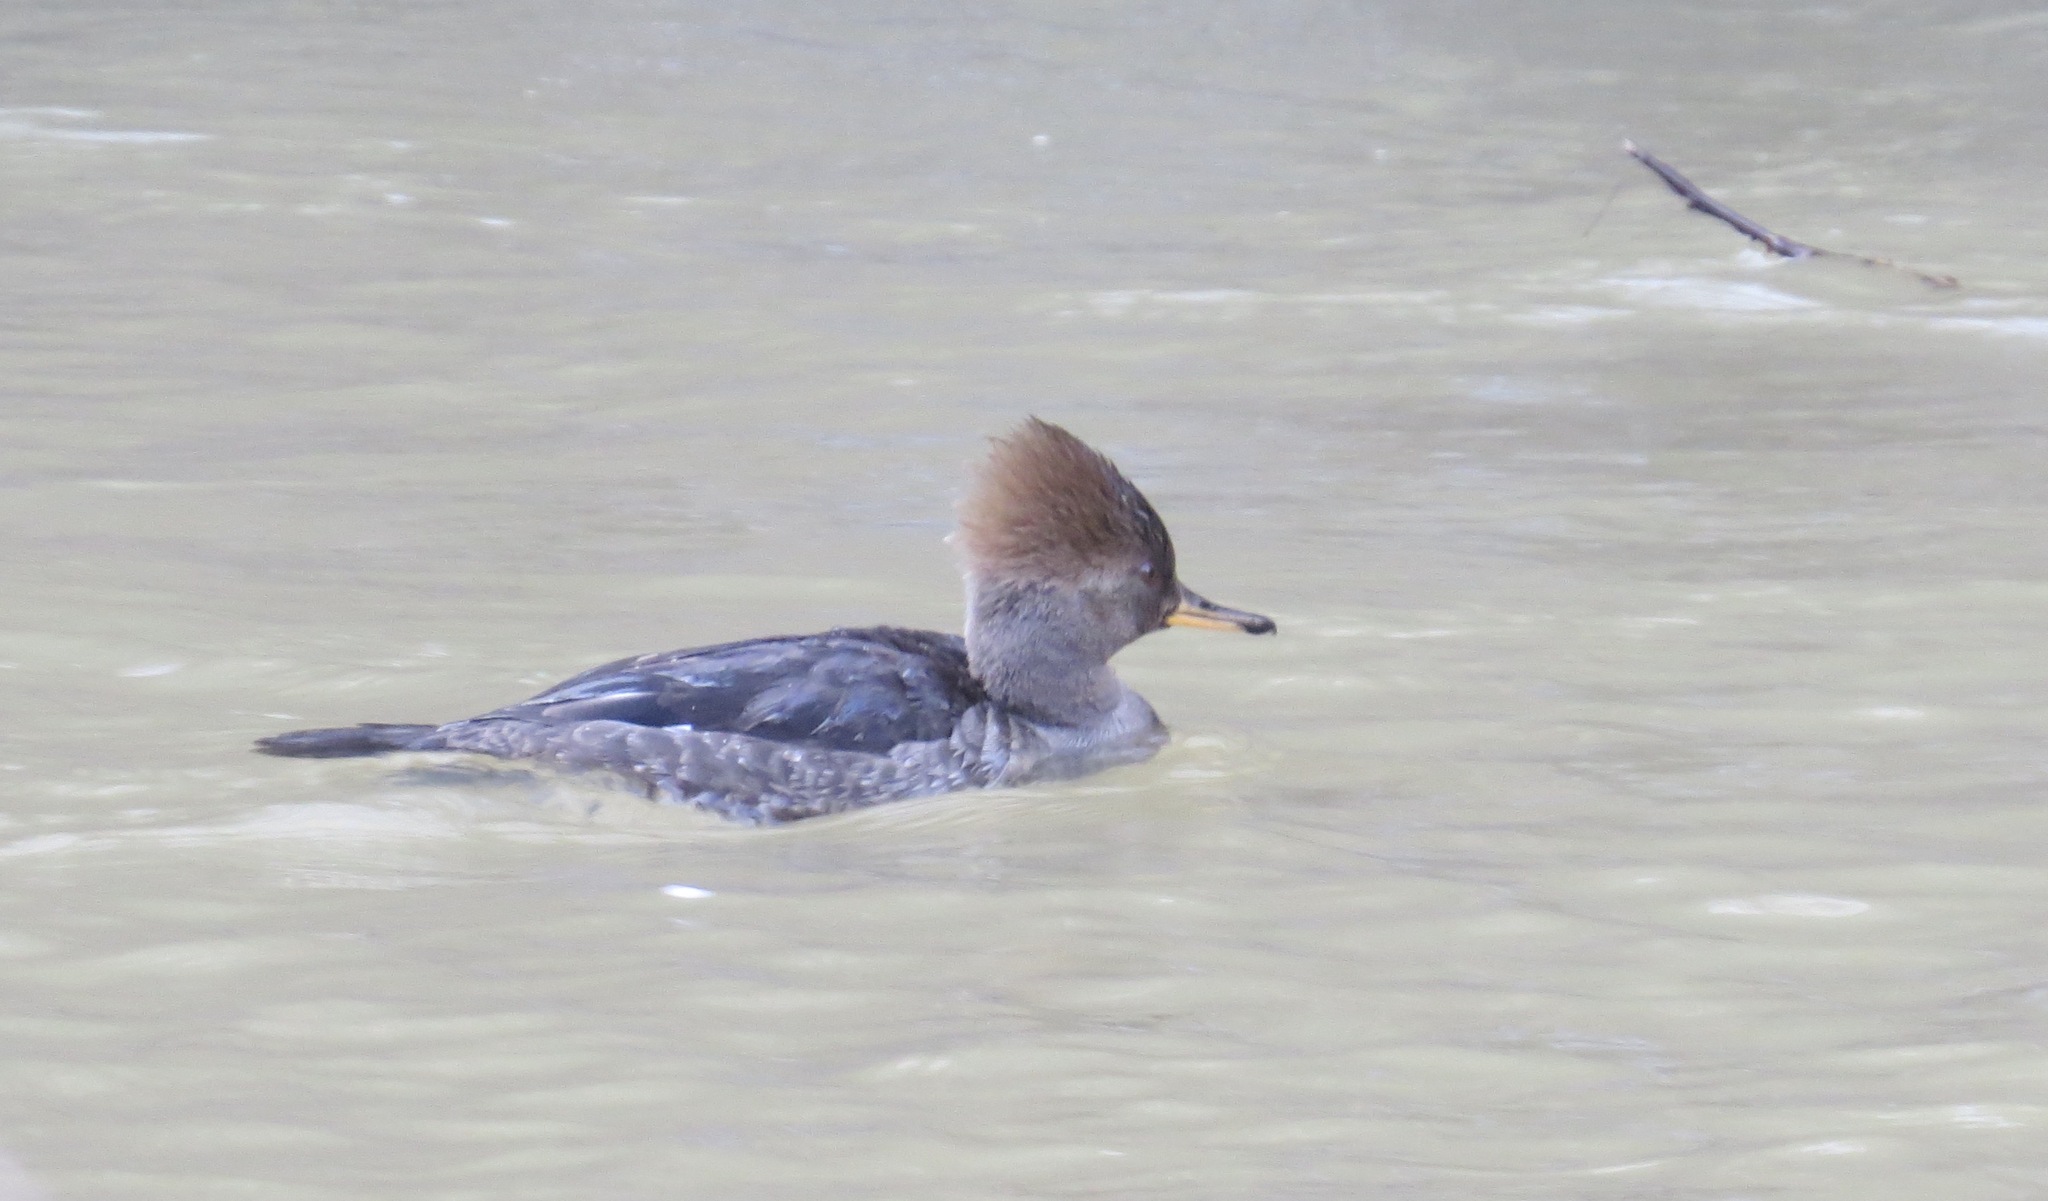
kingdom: Animalia
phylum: Chordata
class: Aves
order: Anseriformes
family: Anatidae
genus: Lophodytes
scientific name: Lophodytes cucullatus
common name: Hooded merganser
